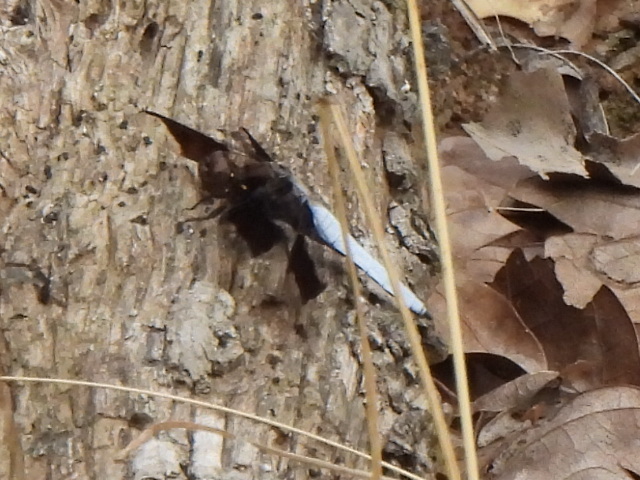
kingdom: Animalia
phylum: Arthropoda
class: Insecta
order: Odonata
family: Libellulidae
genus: Plathemis
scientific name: Plathemis lydia
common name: Common whitetail
